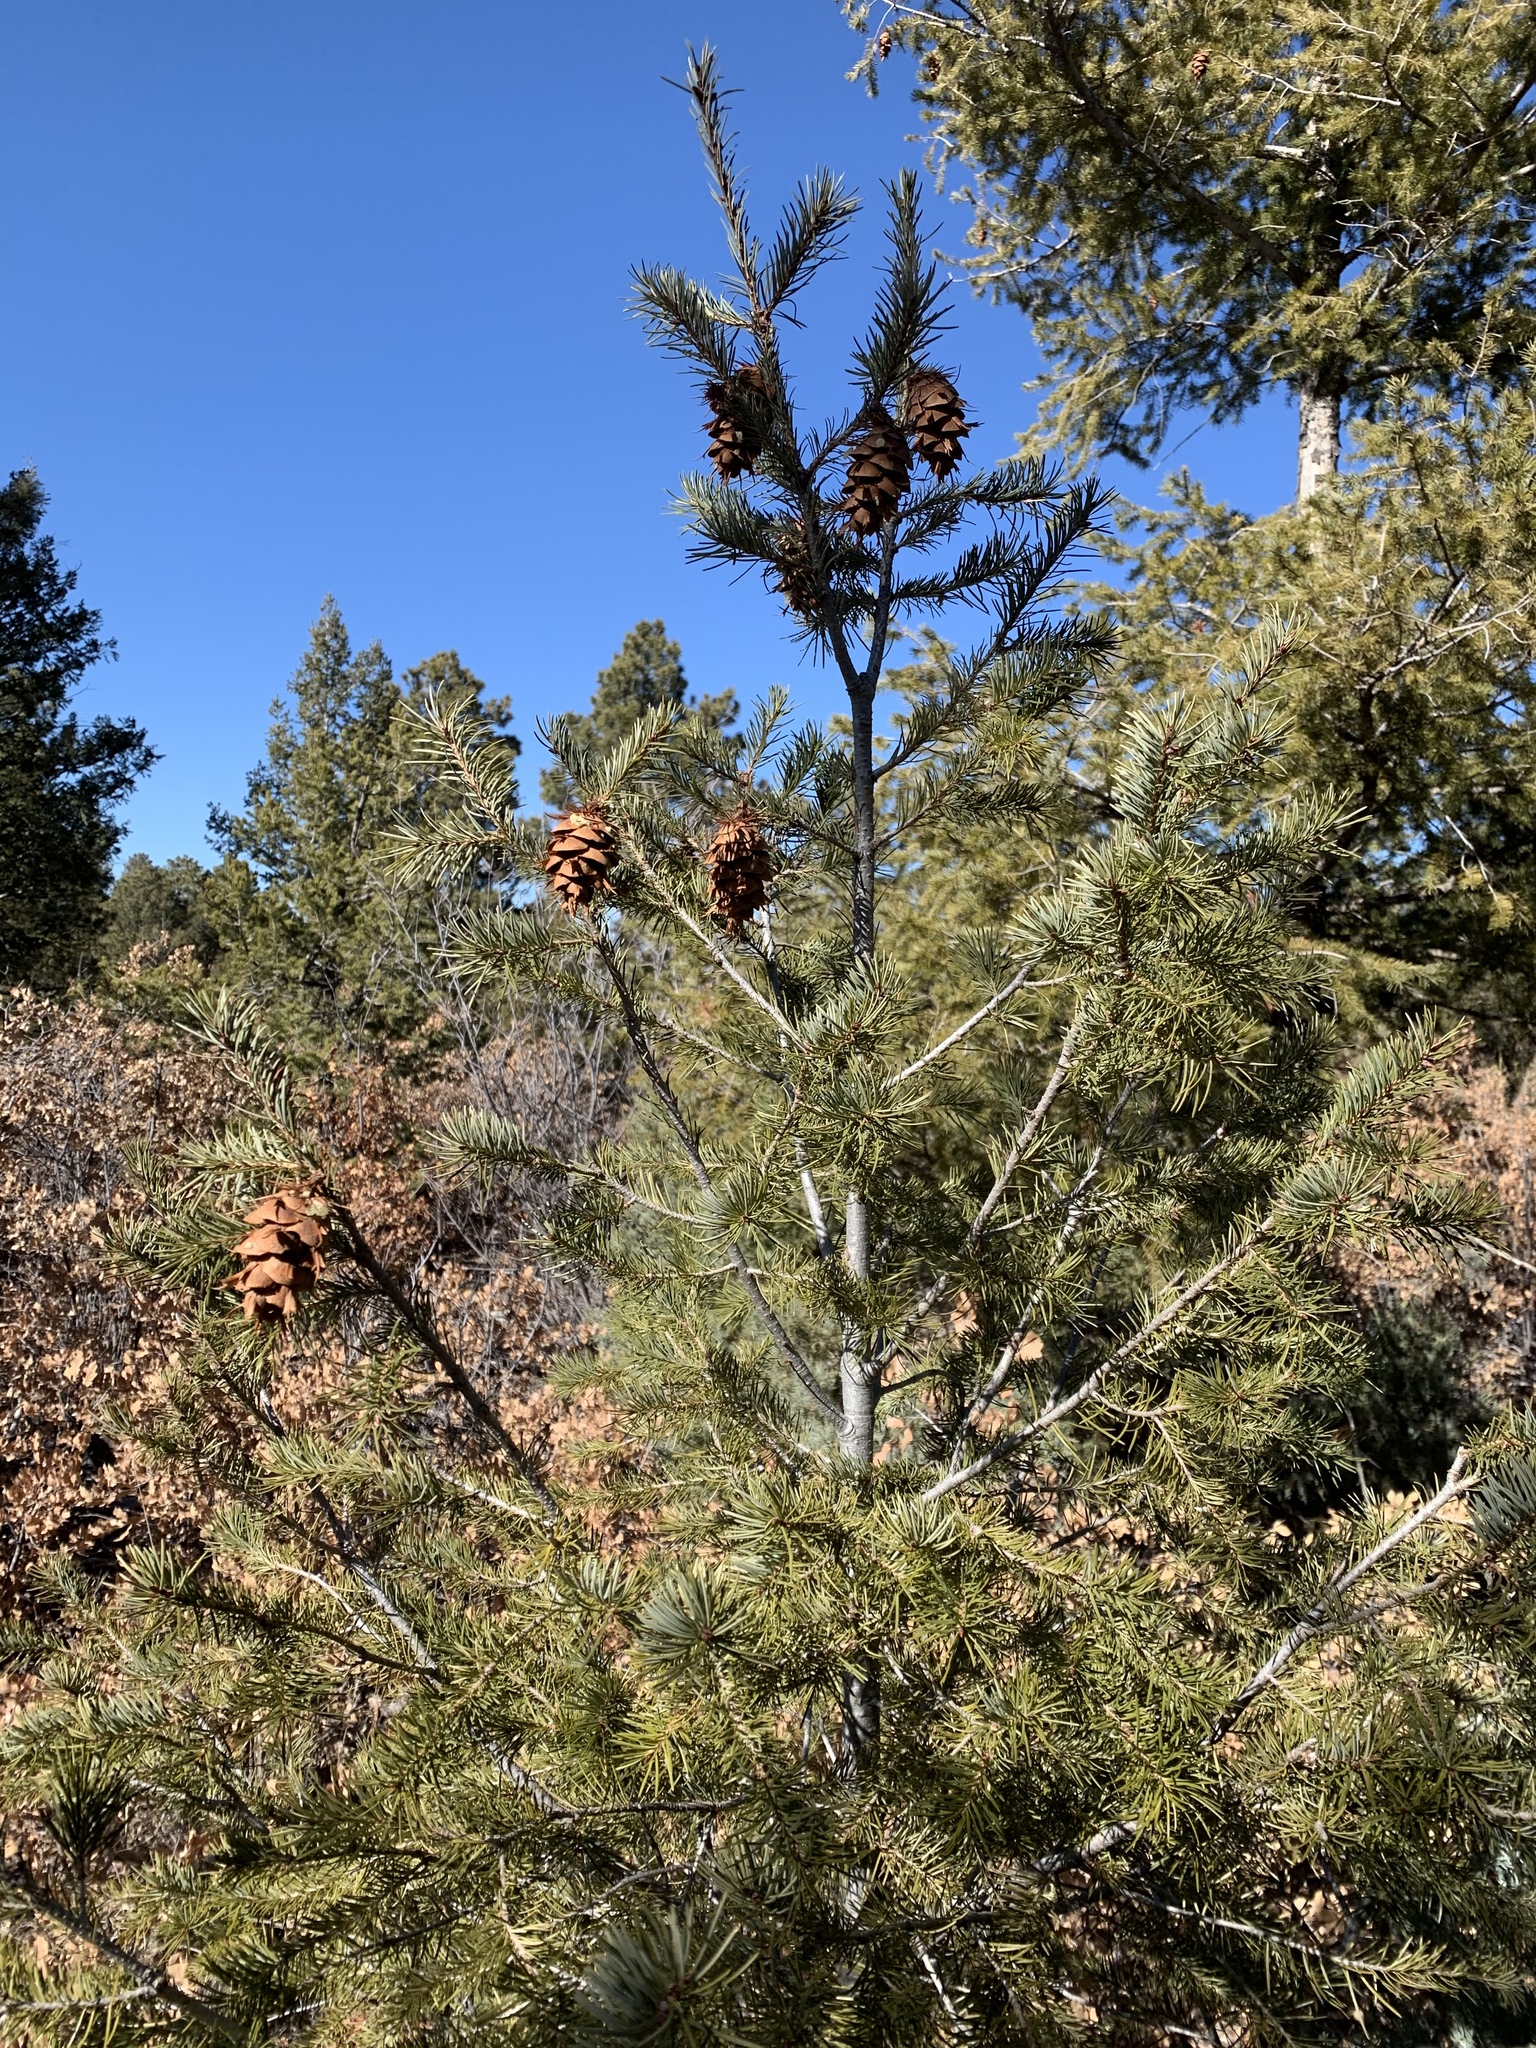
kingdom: Plantae
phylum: Tracheophyta
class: Pinopsida
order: Pinales
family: Pinaceae
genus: Pseudotsuga
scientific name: Pseudotsuga menziesii
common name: Douglas fir
